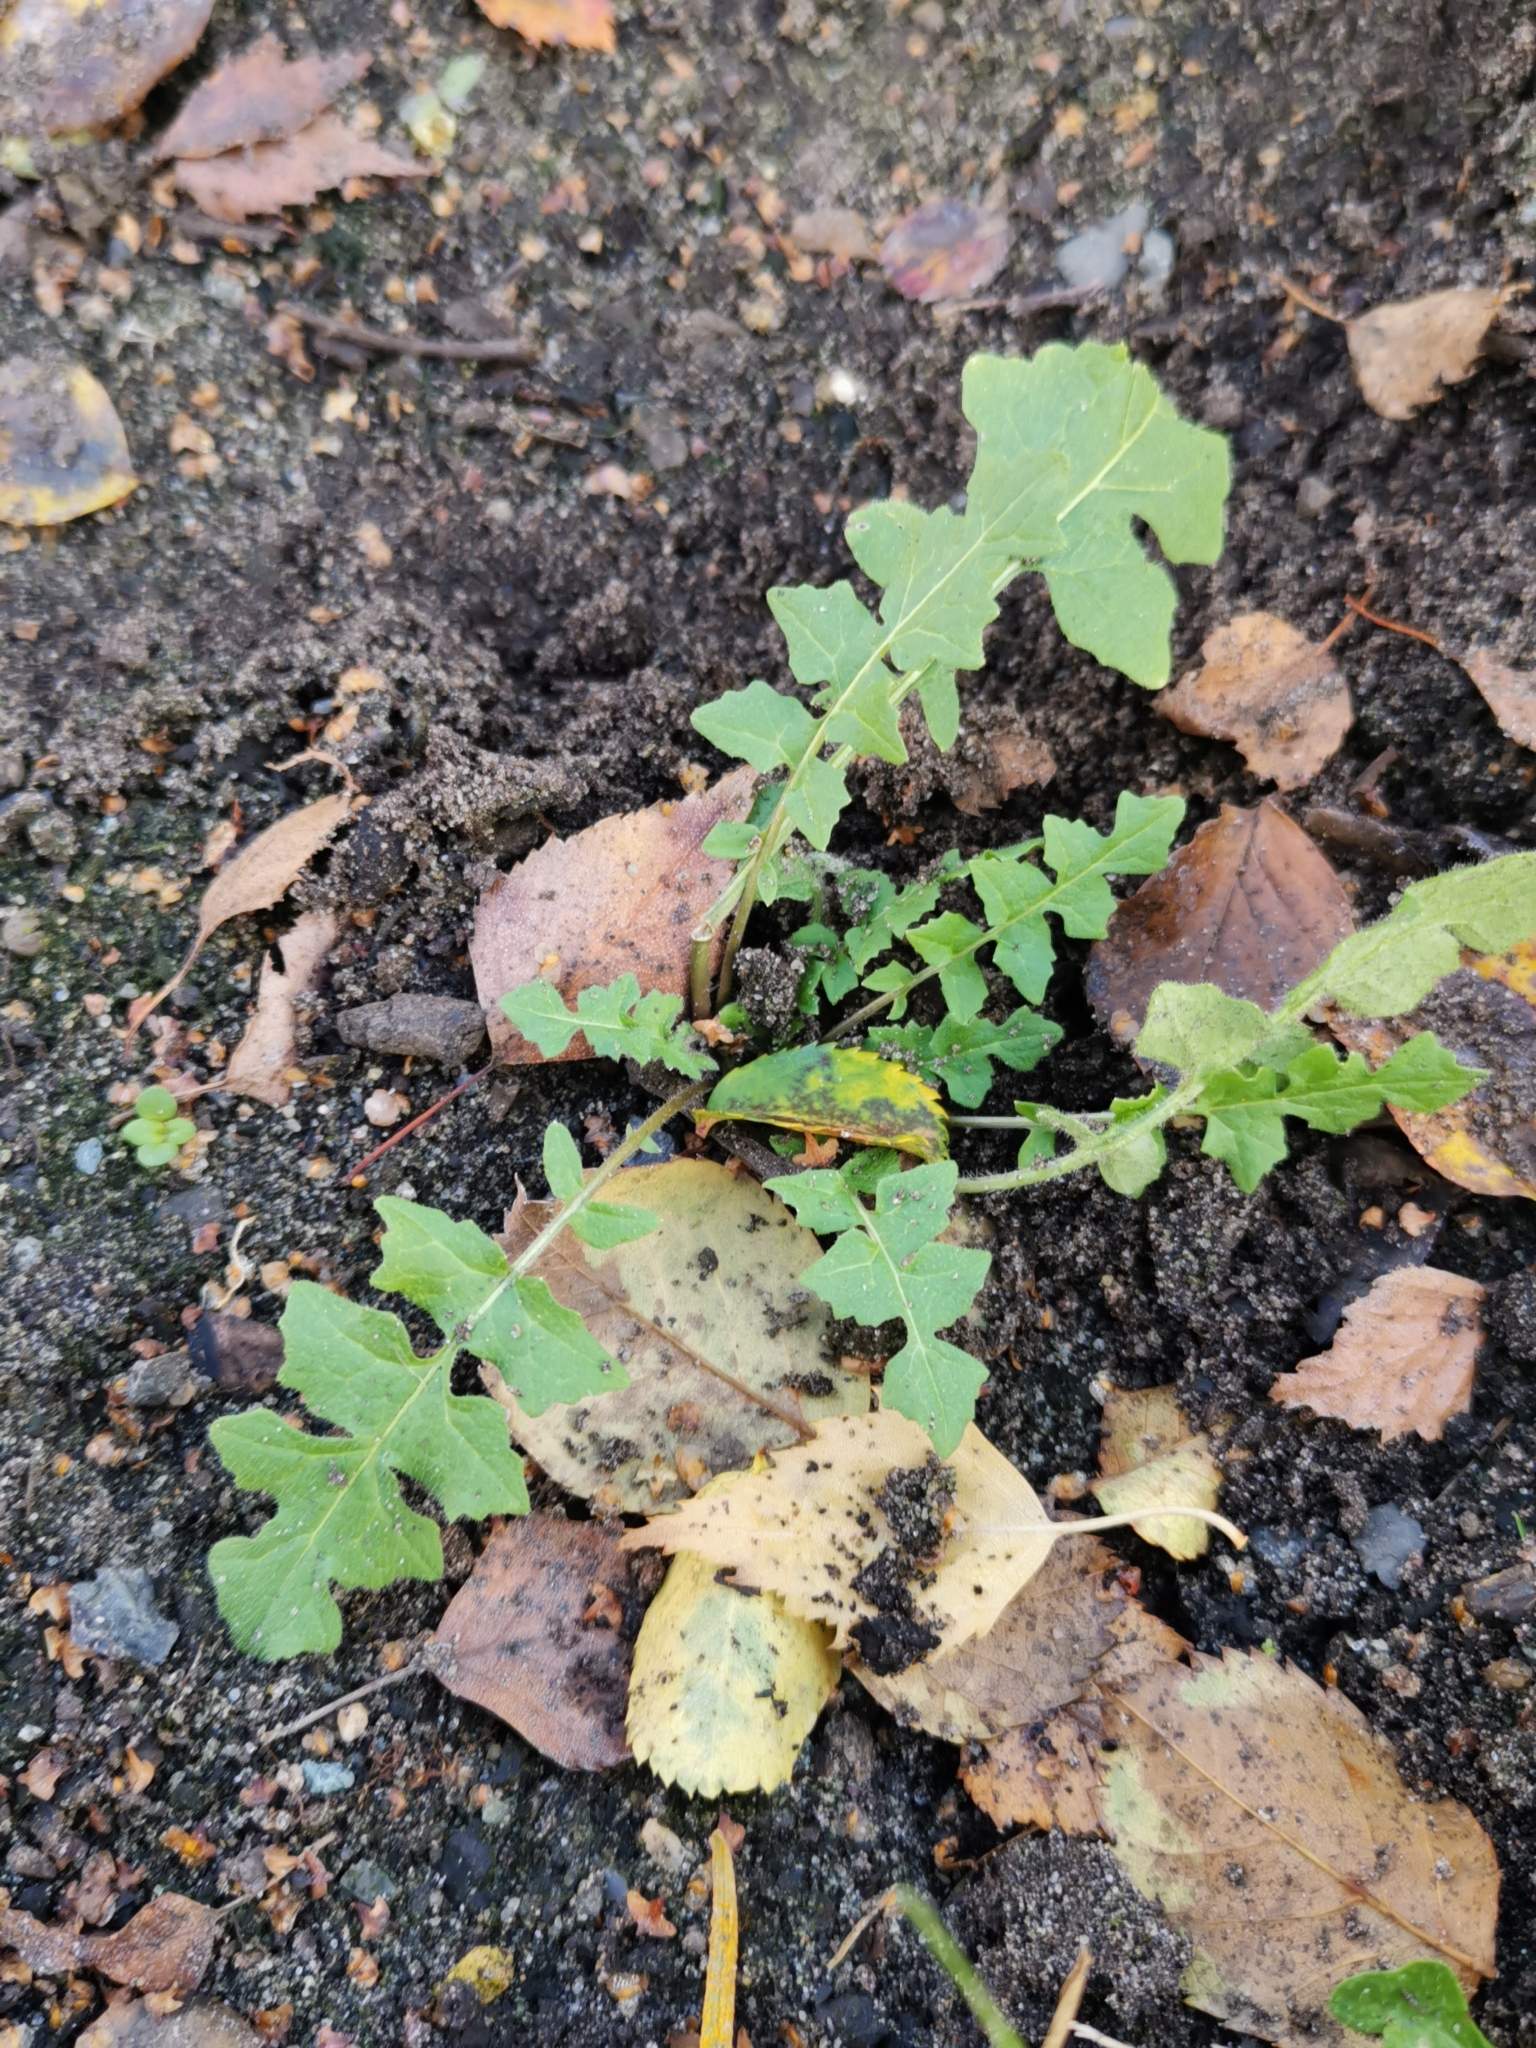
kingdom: Plantae
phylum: Tracheophyta
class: Magnoliopsida
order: Brassicales
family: Brassicaceae
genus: Sisymbrium
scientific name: Sisymbrium loeselii
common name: False london-rocket
